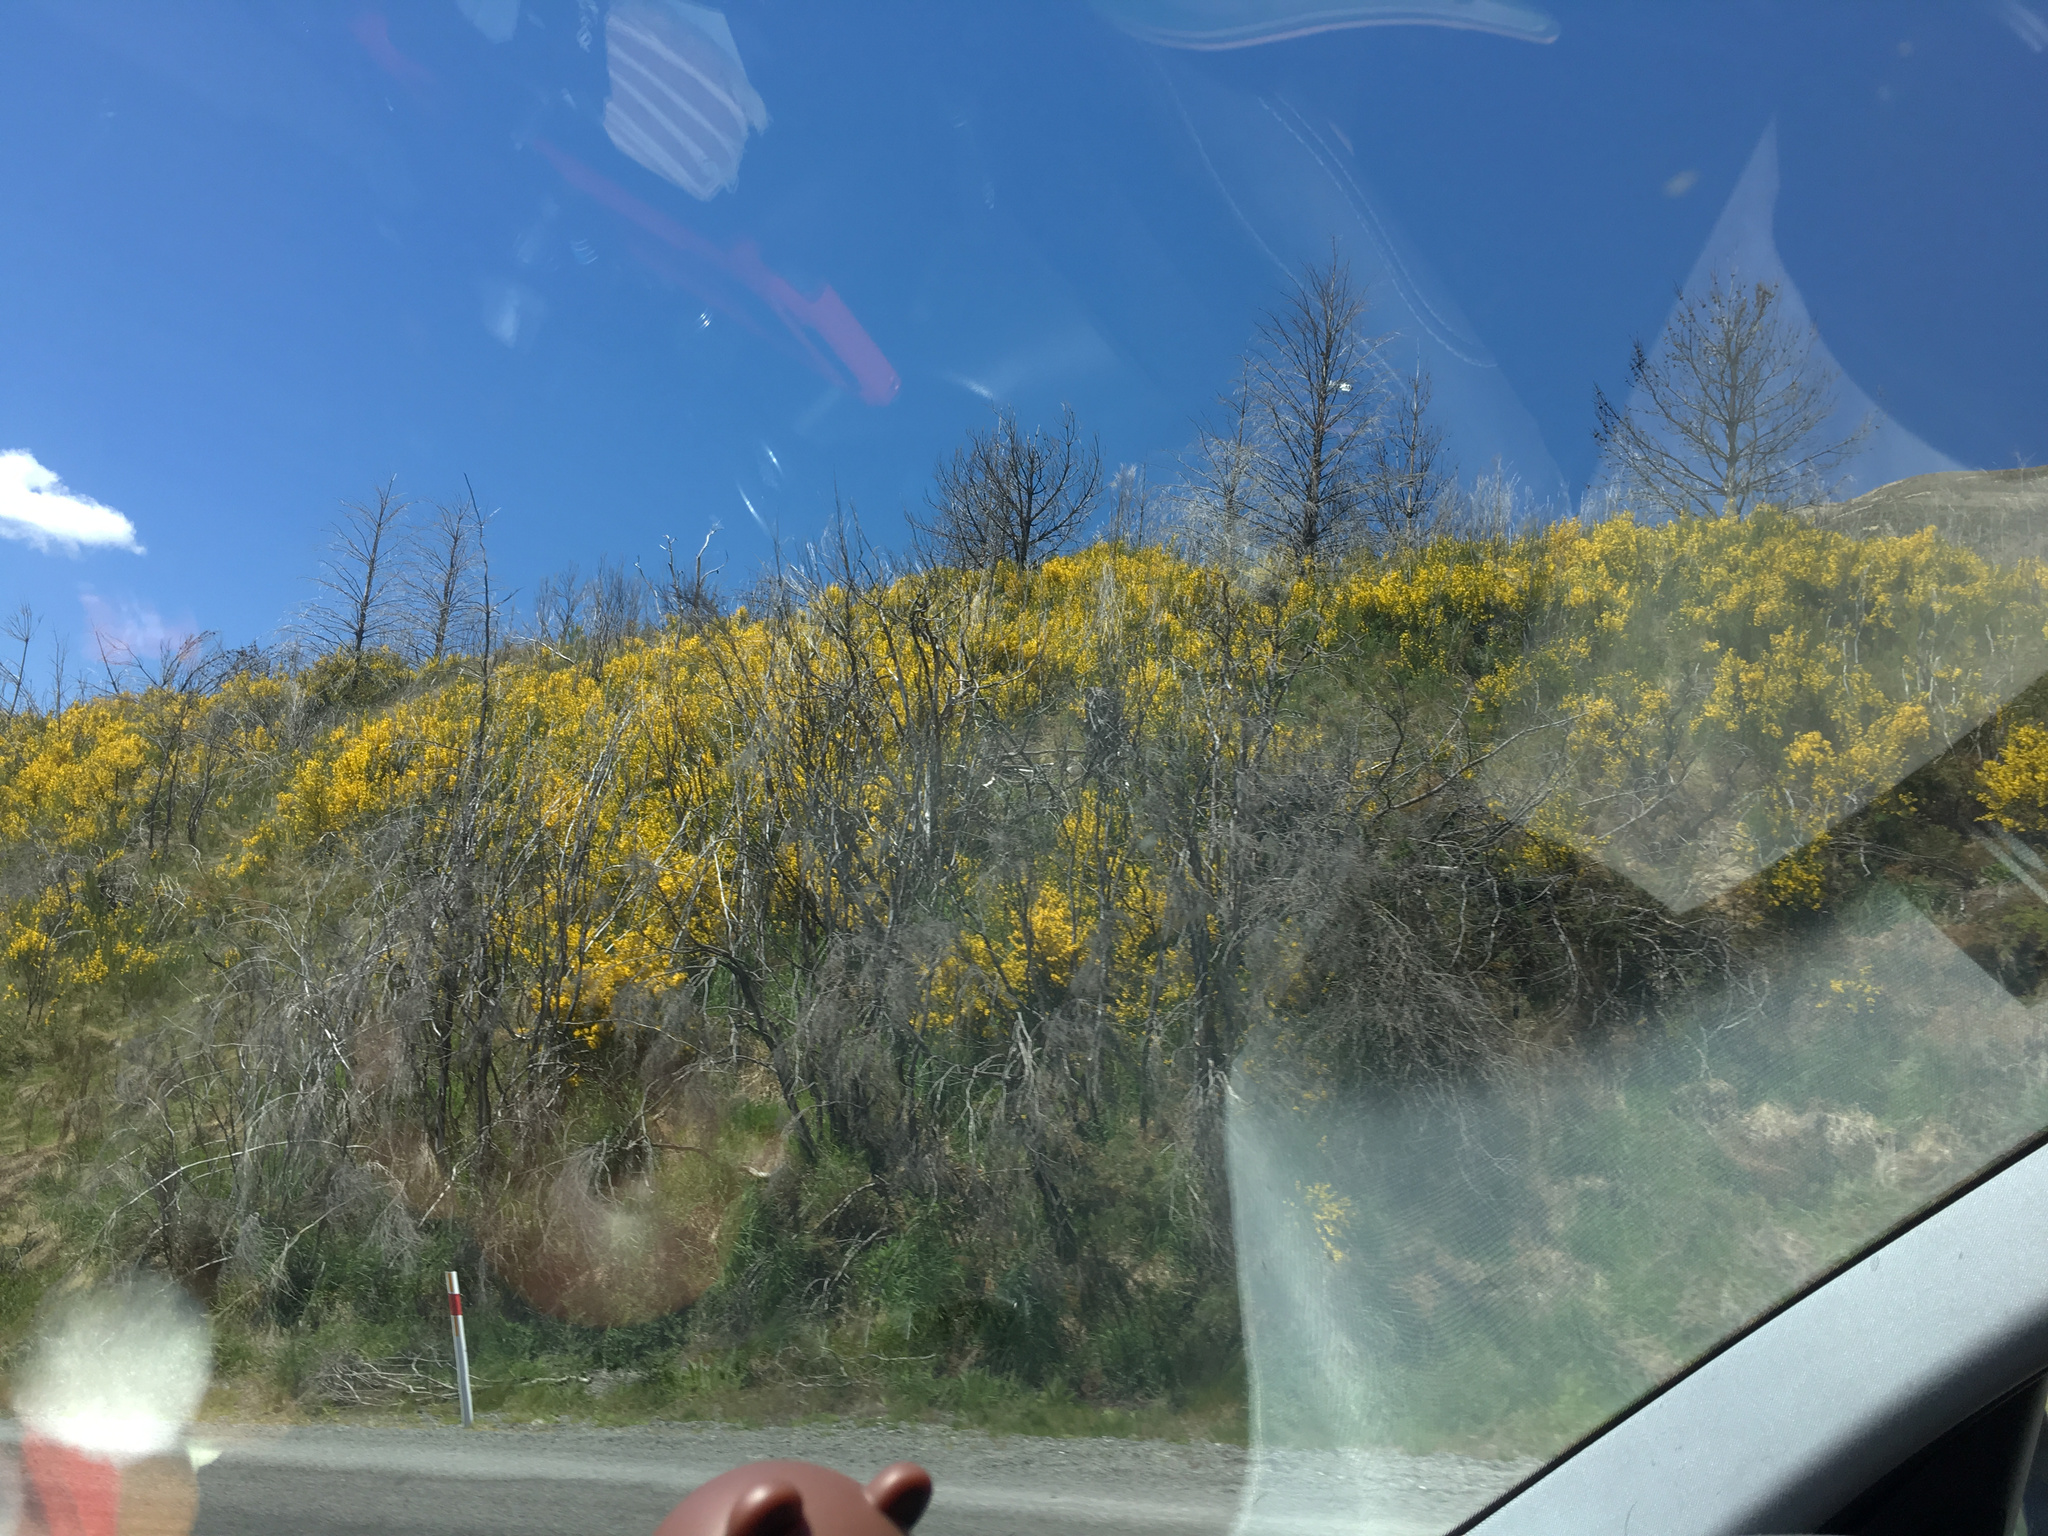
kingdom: Plantae
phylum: Tracheophyta
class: Magnoliopsida
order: Fabales
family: Fabaceae
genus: Cytisus
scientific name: Cytisus scoparius
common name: Scotch broom
